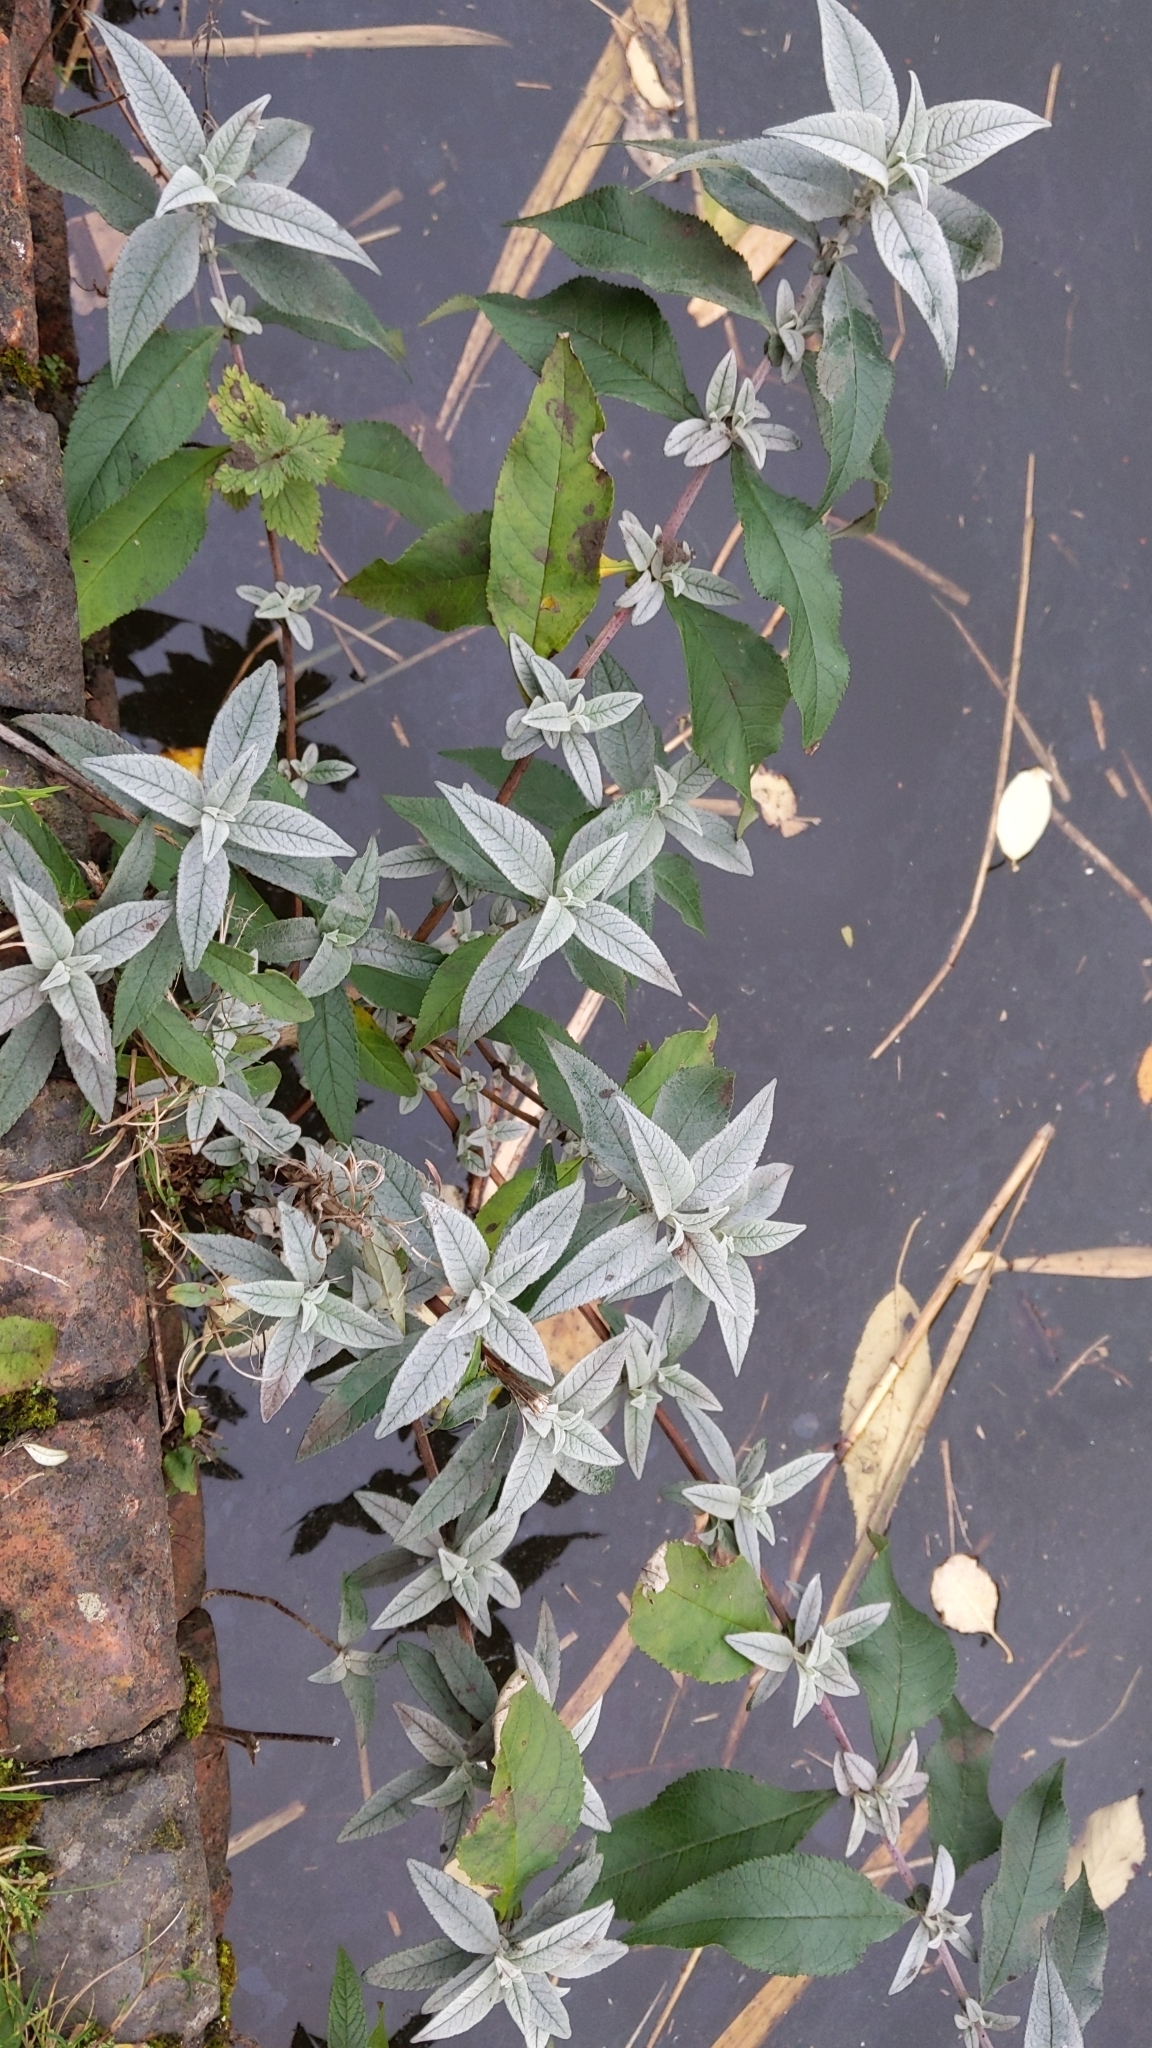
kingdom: Plantae
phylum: Tracheophyta
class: Magnoliopsida
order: Lamiales
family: Scrophulariaceae
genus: Buddleja
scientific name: Buddleja davidii
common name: Butterfly-bush
